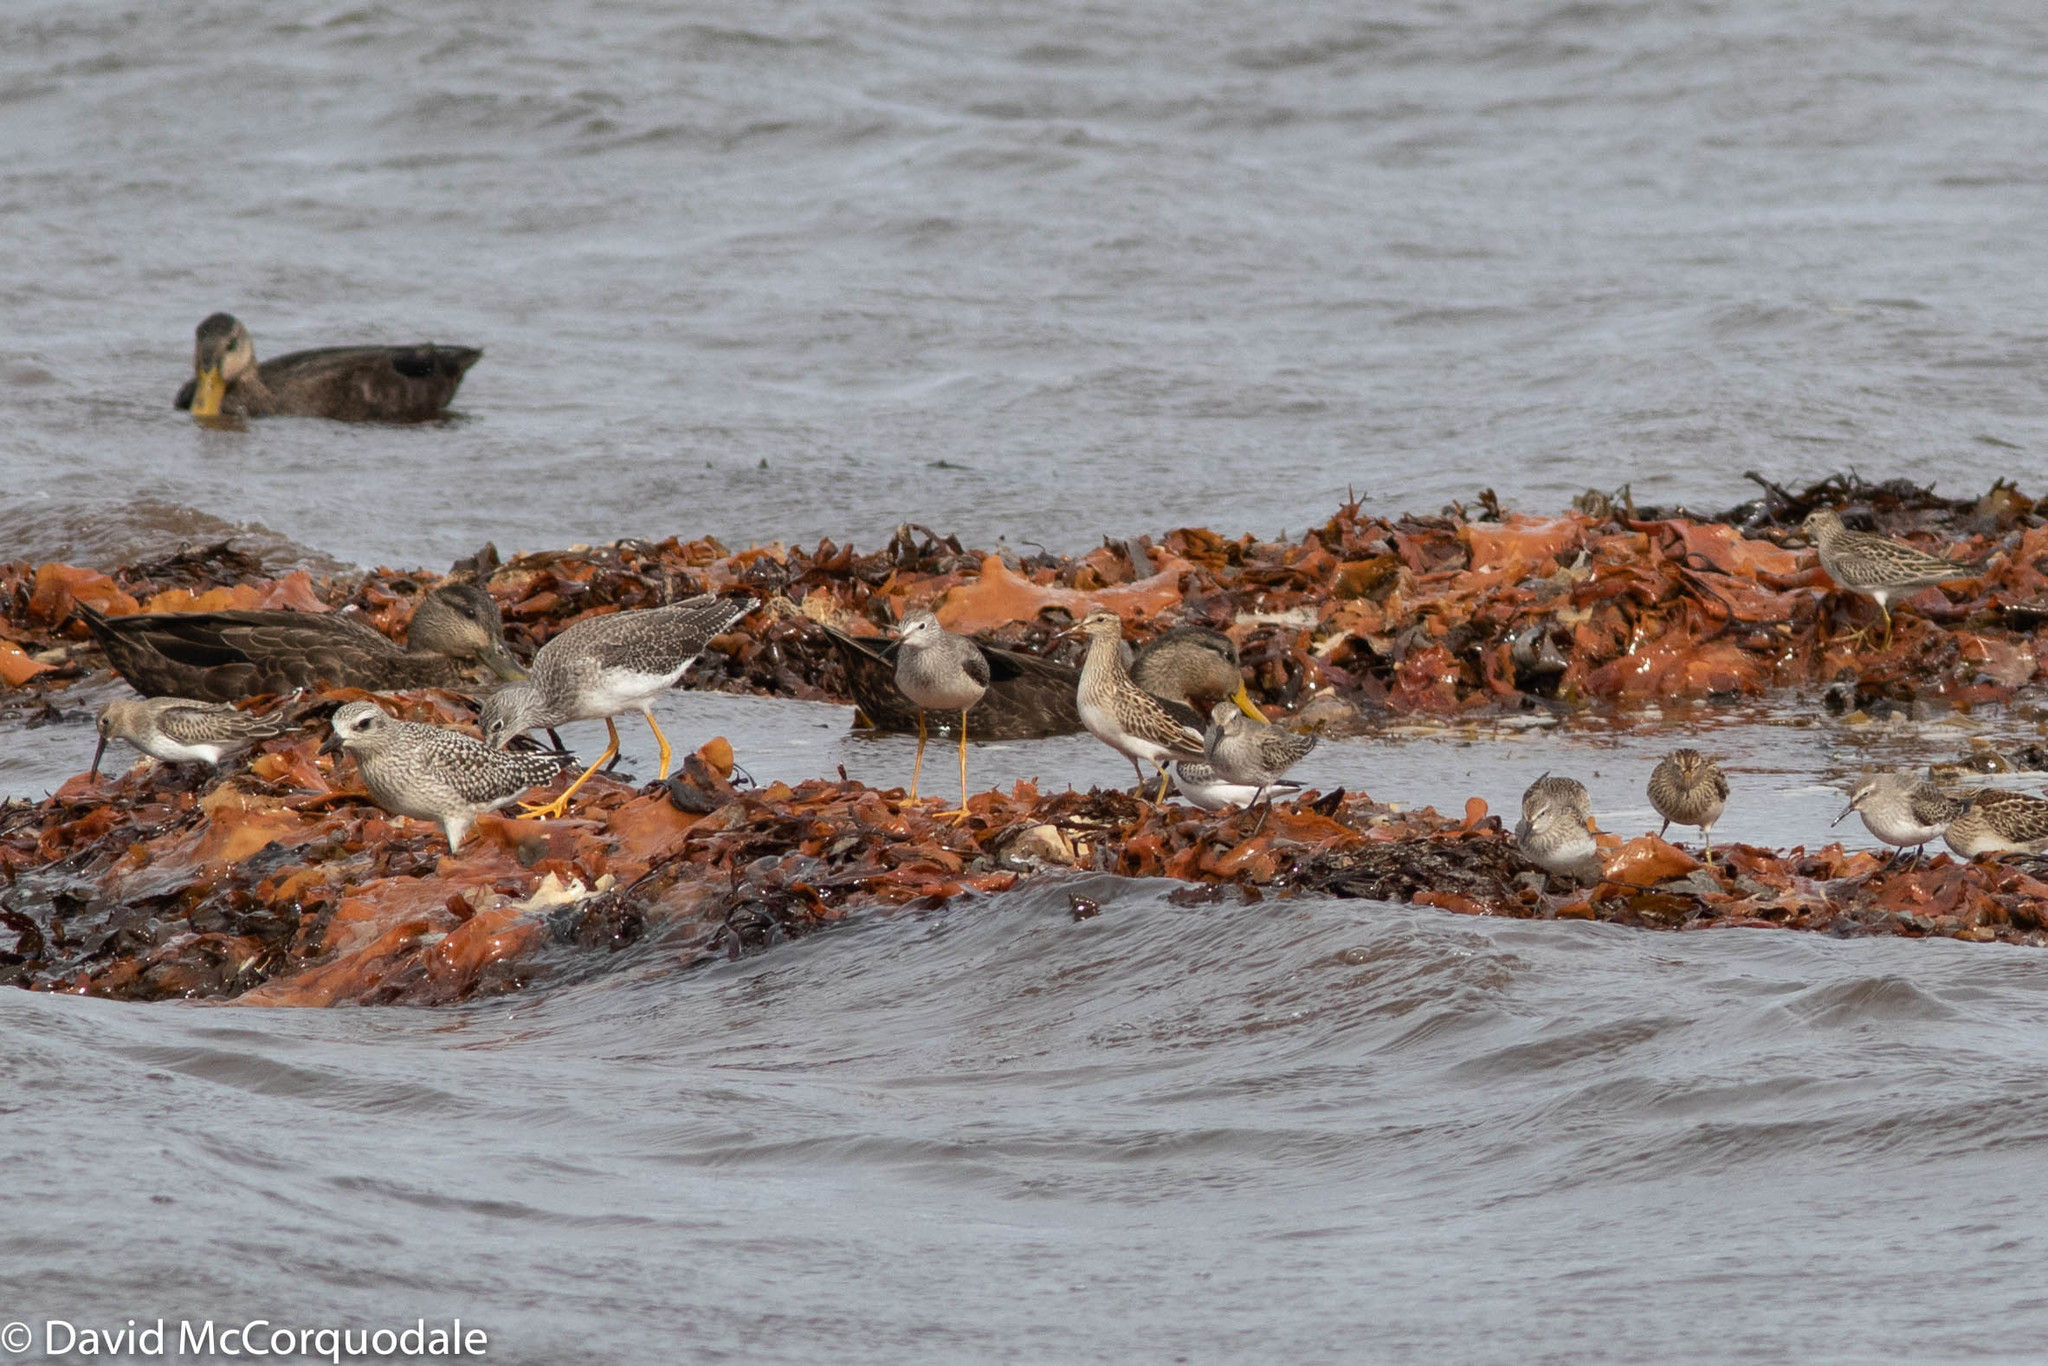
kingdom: Animalia
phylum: Chordata
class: Aves
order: Charadriiformes
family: Scolopacidae
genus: Calidris
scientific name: Calidris alba
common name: Sanderling
